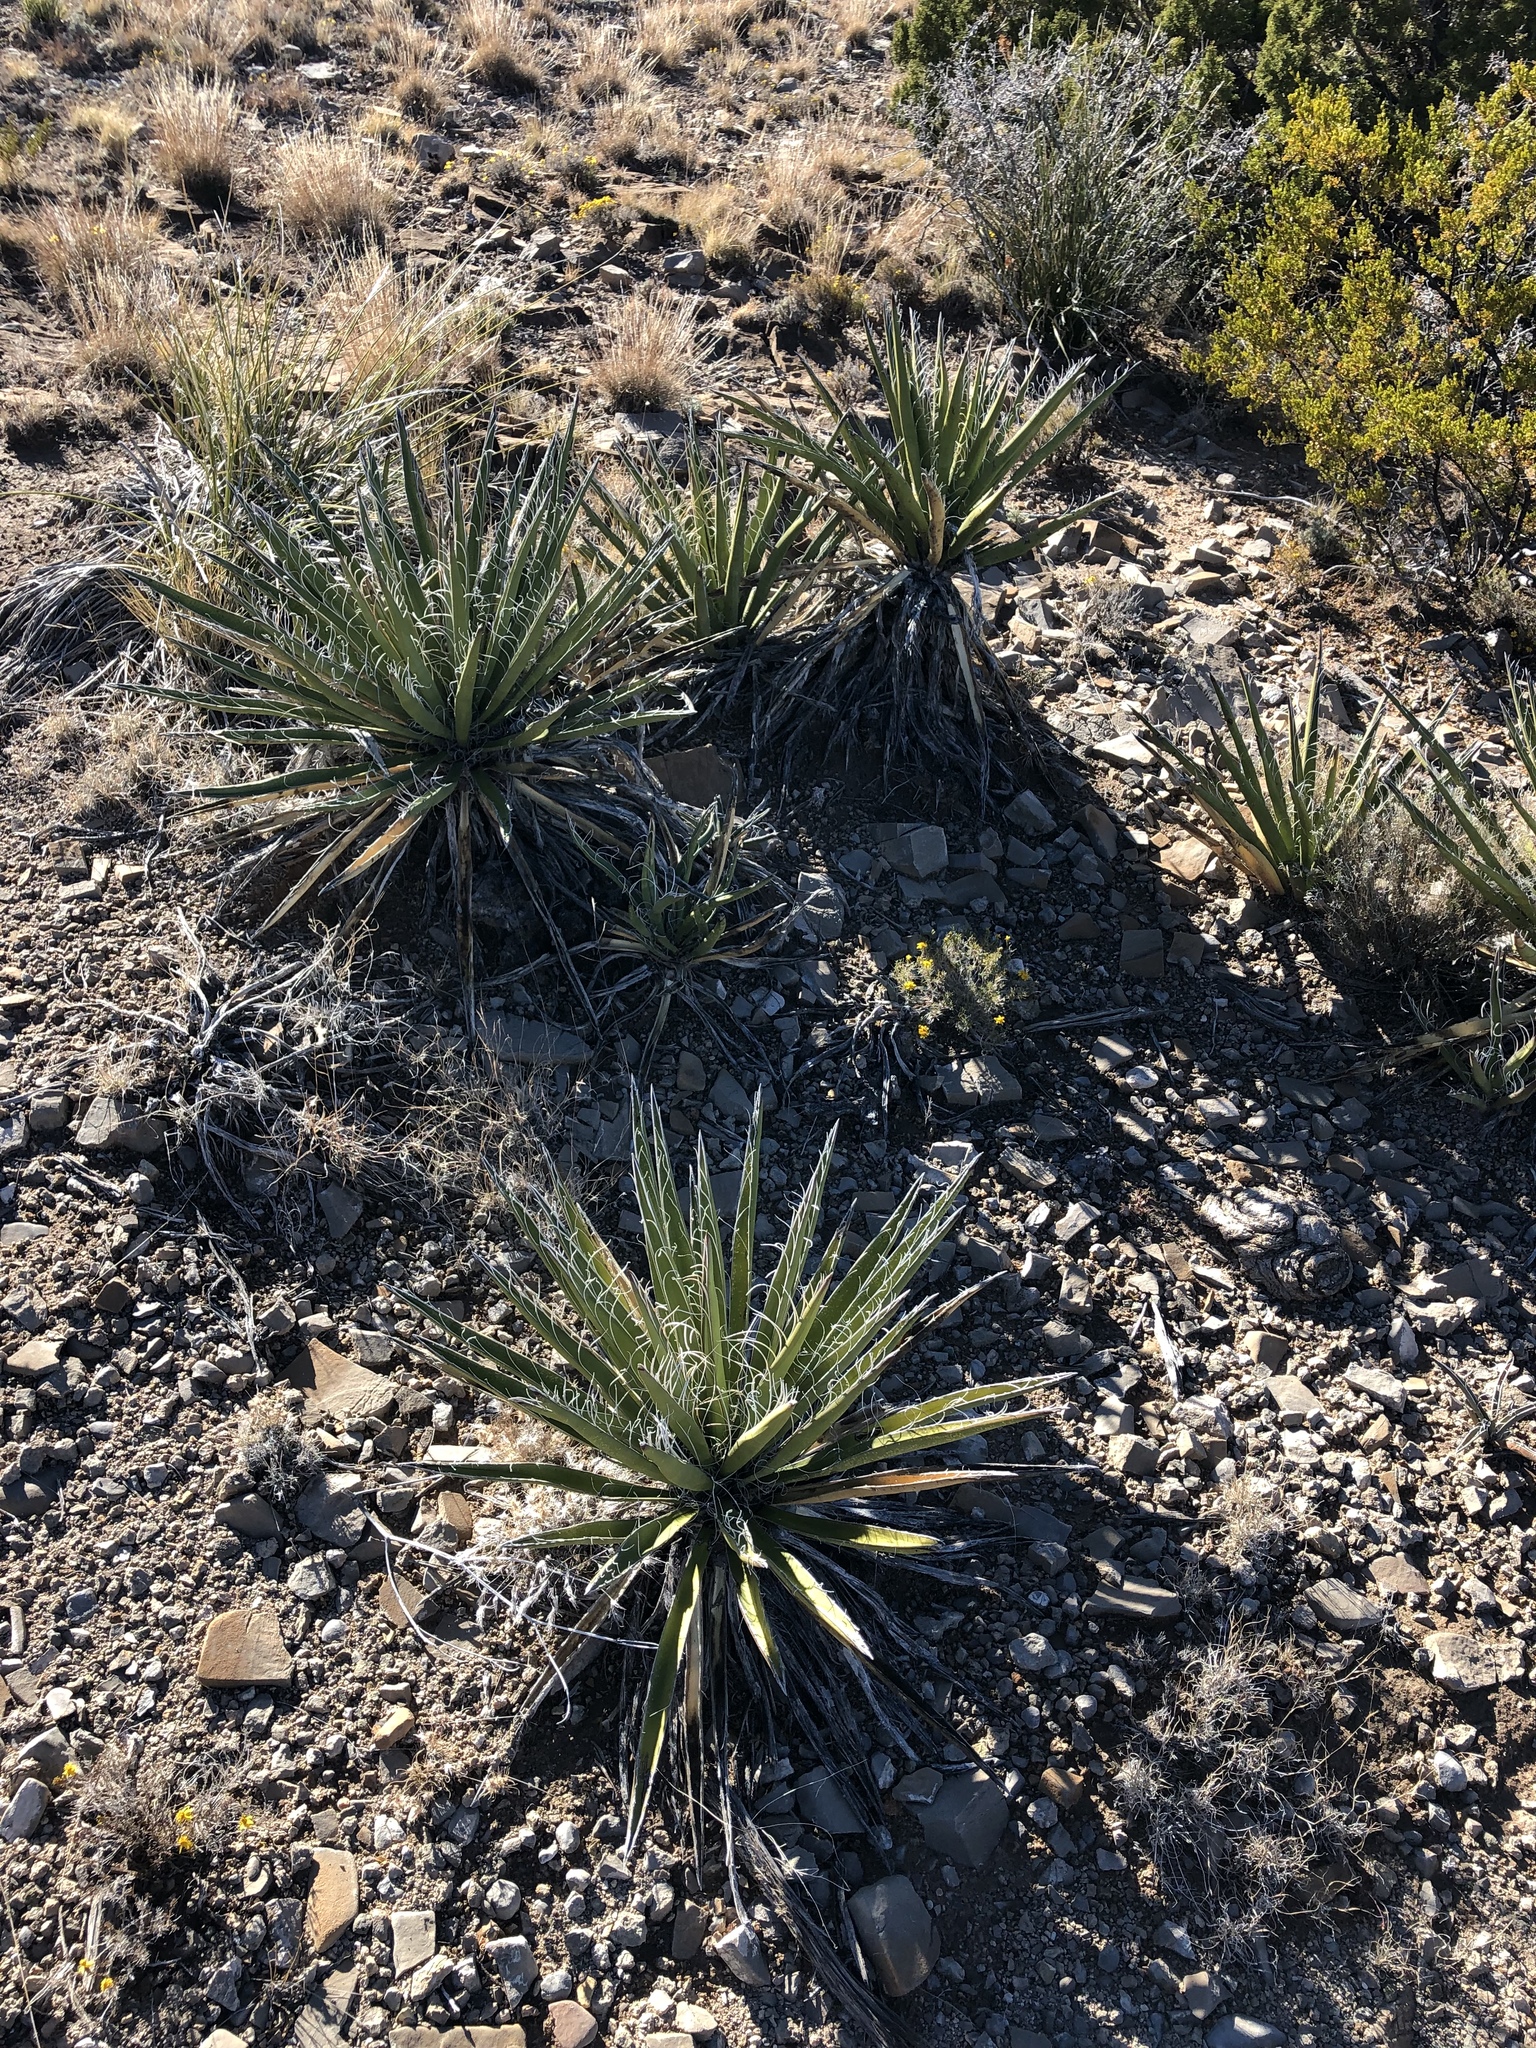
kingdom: Plantae
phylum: Tracheophyta
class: Liliopsida
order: Asparagales
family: Asparagaceae
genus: Yucca
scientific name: Yucca baccata
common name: Banana yucca
